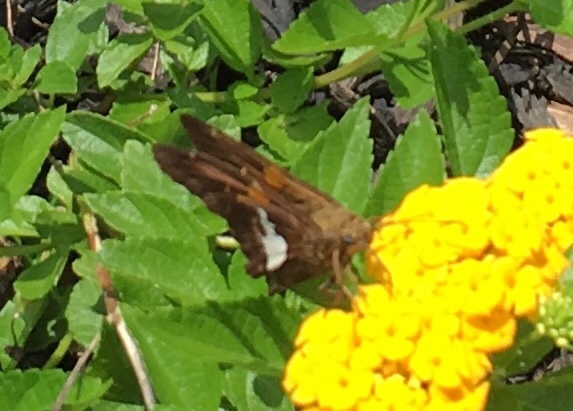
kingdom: Animalia
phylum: Arthropoda
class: Insecta
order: Lepidoptera
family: Hesperiidae
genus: Epargyreus
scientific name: Epargyreus clarus
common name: Silver-spotted skipper
